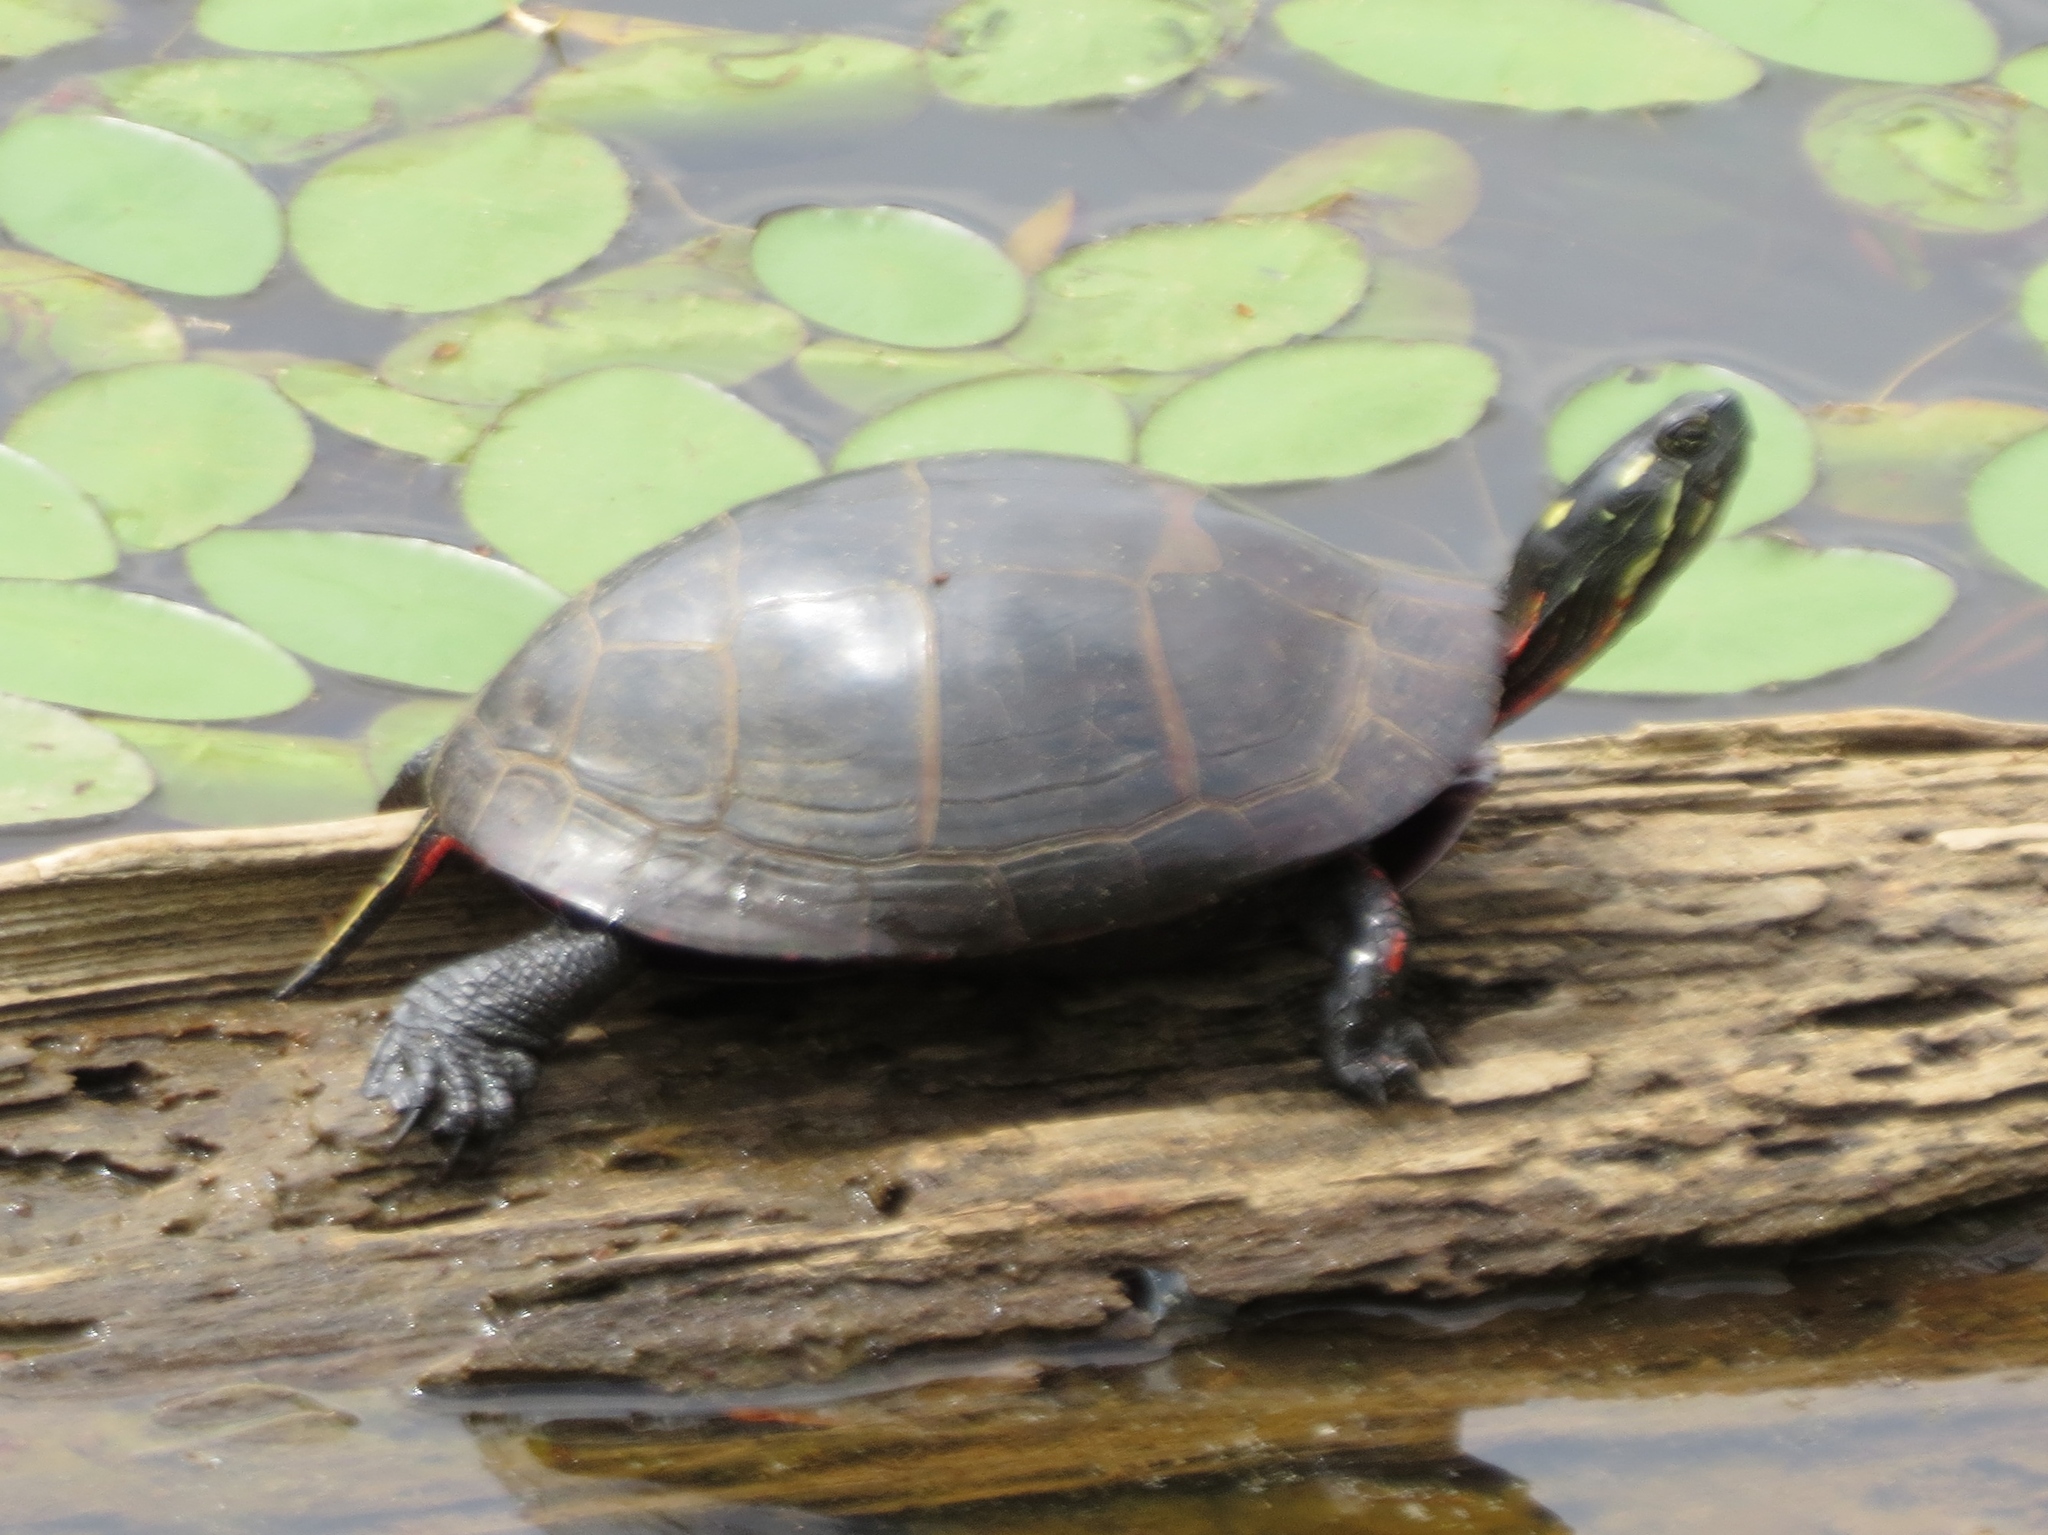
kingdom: Animalia
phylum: Chordata
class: Testudines
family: Emydidae
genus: Chrysemys
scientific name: Chrysemys picta
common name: Painted turtle
